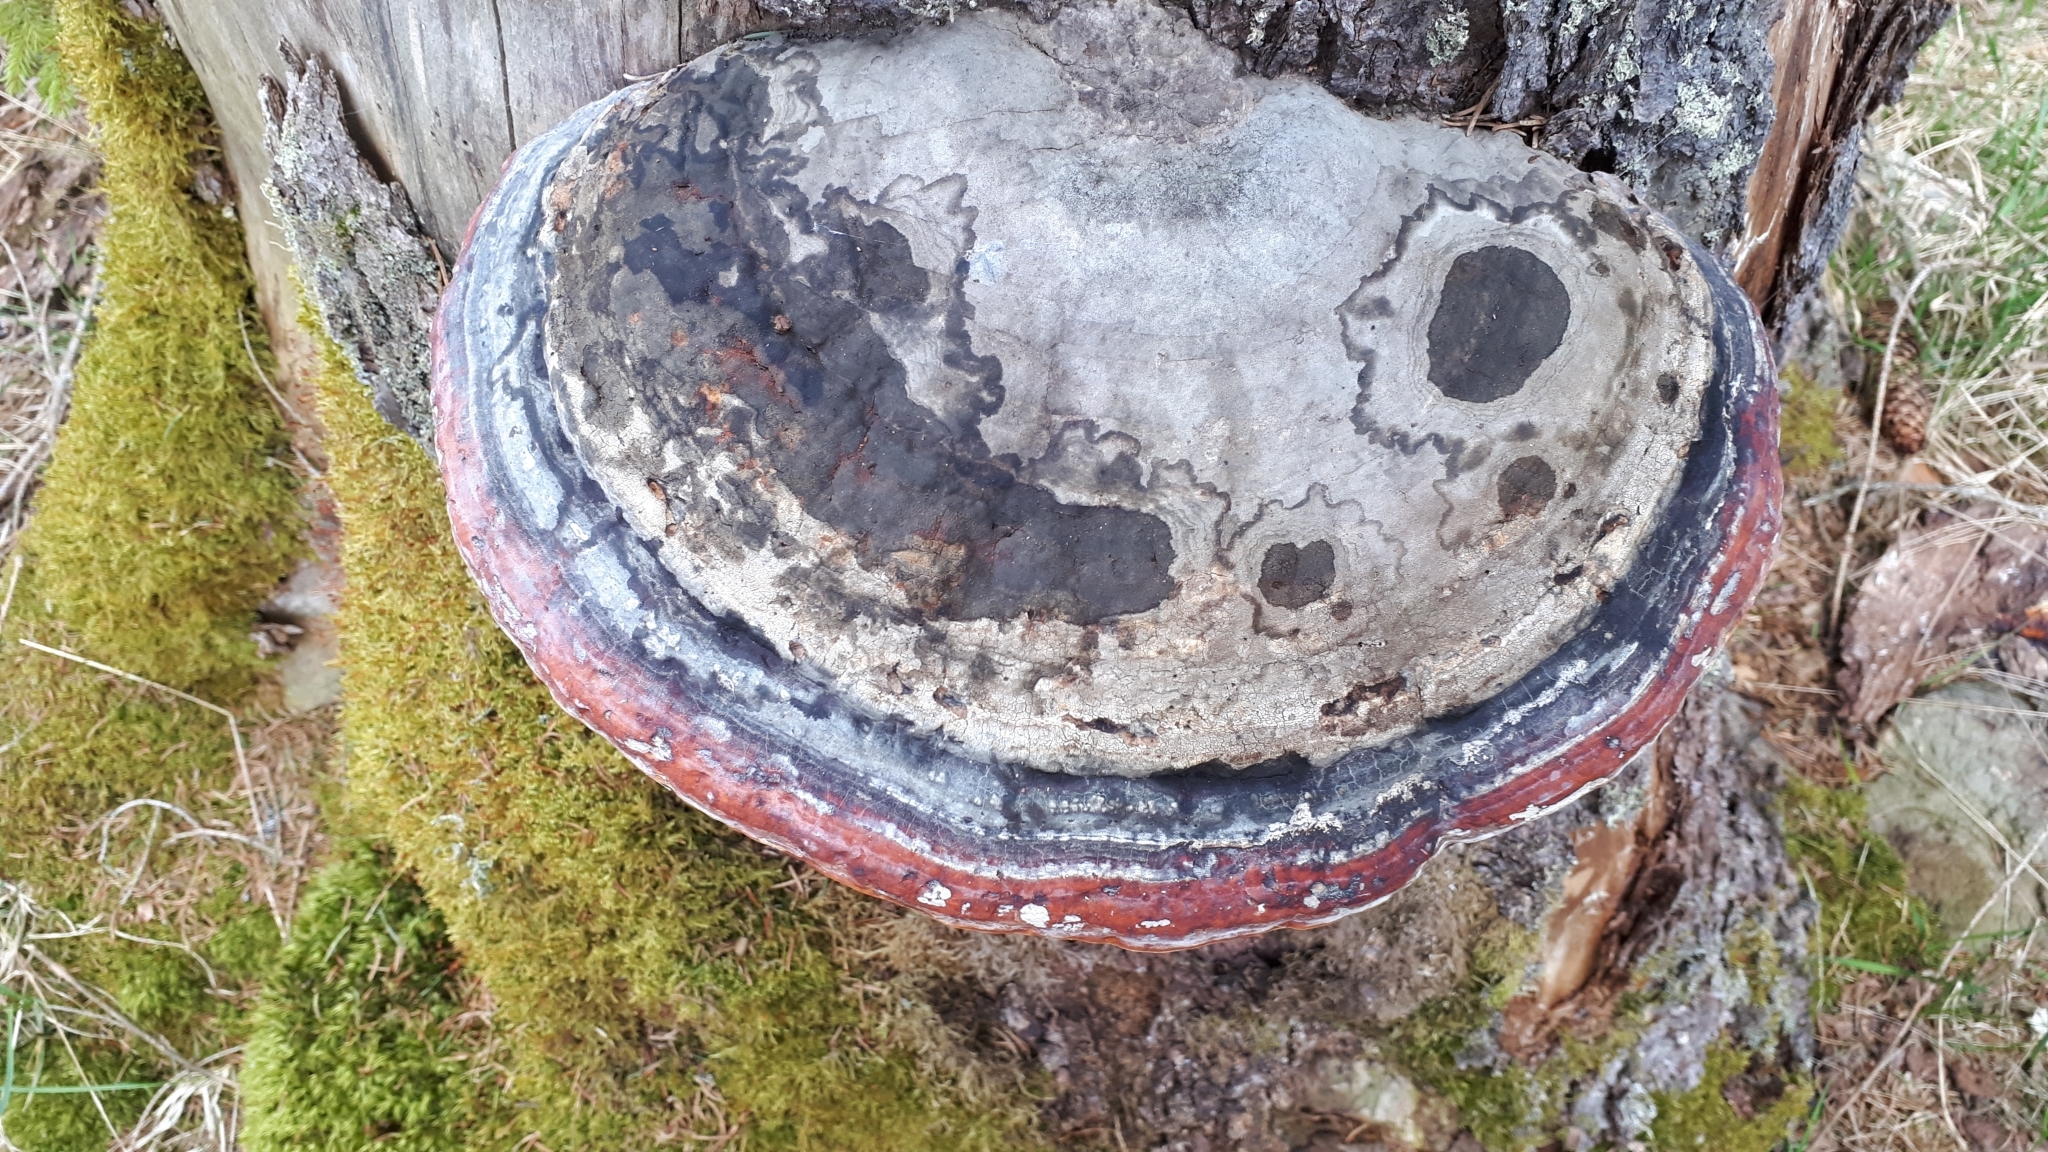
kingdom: Fungi
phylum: Basidiomycota
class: Agaricomycetes
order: Polyporales
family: Fomitopsidaceae
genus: Fomitopsis
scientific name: Fomitopsis pinicola
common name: Red-belted bracket
